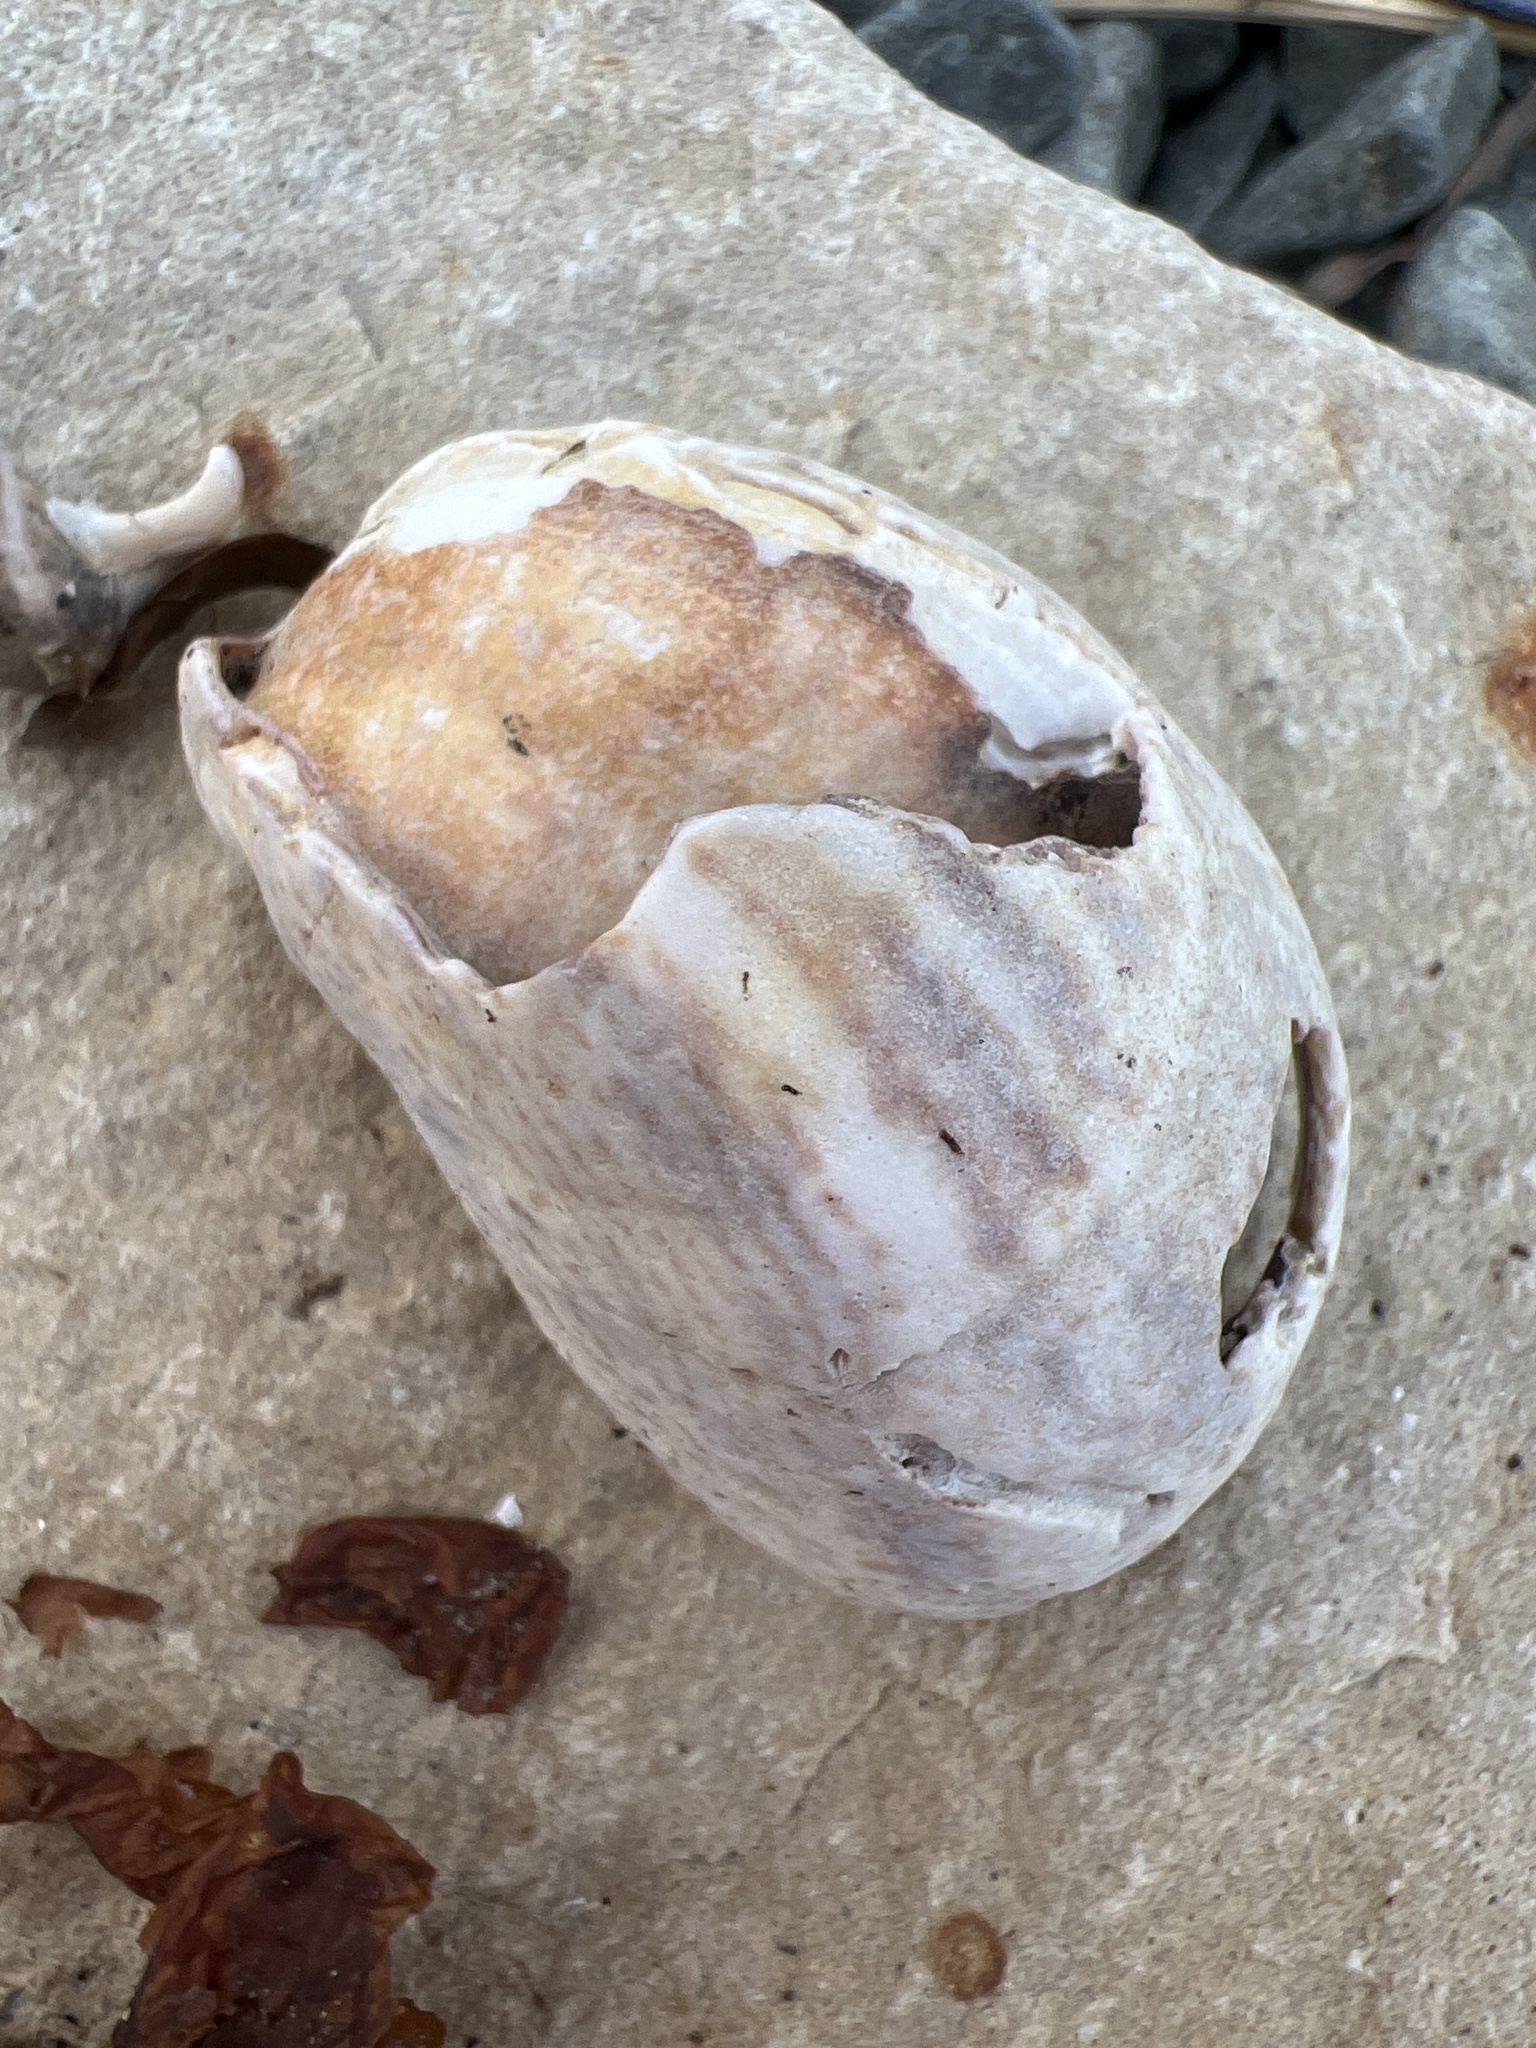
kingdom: Animalia
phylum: Mollusca
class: Gastropoda
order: Littorinimorpha
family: Calyptraeidae
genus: Crepidula
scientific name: Crepidula fornicata
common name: Slipper limpet
